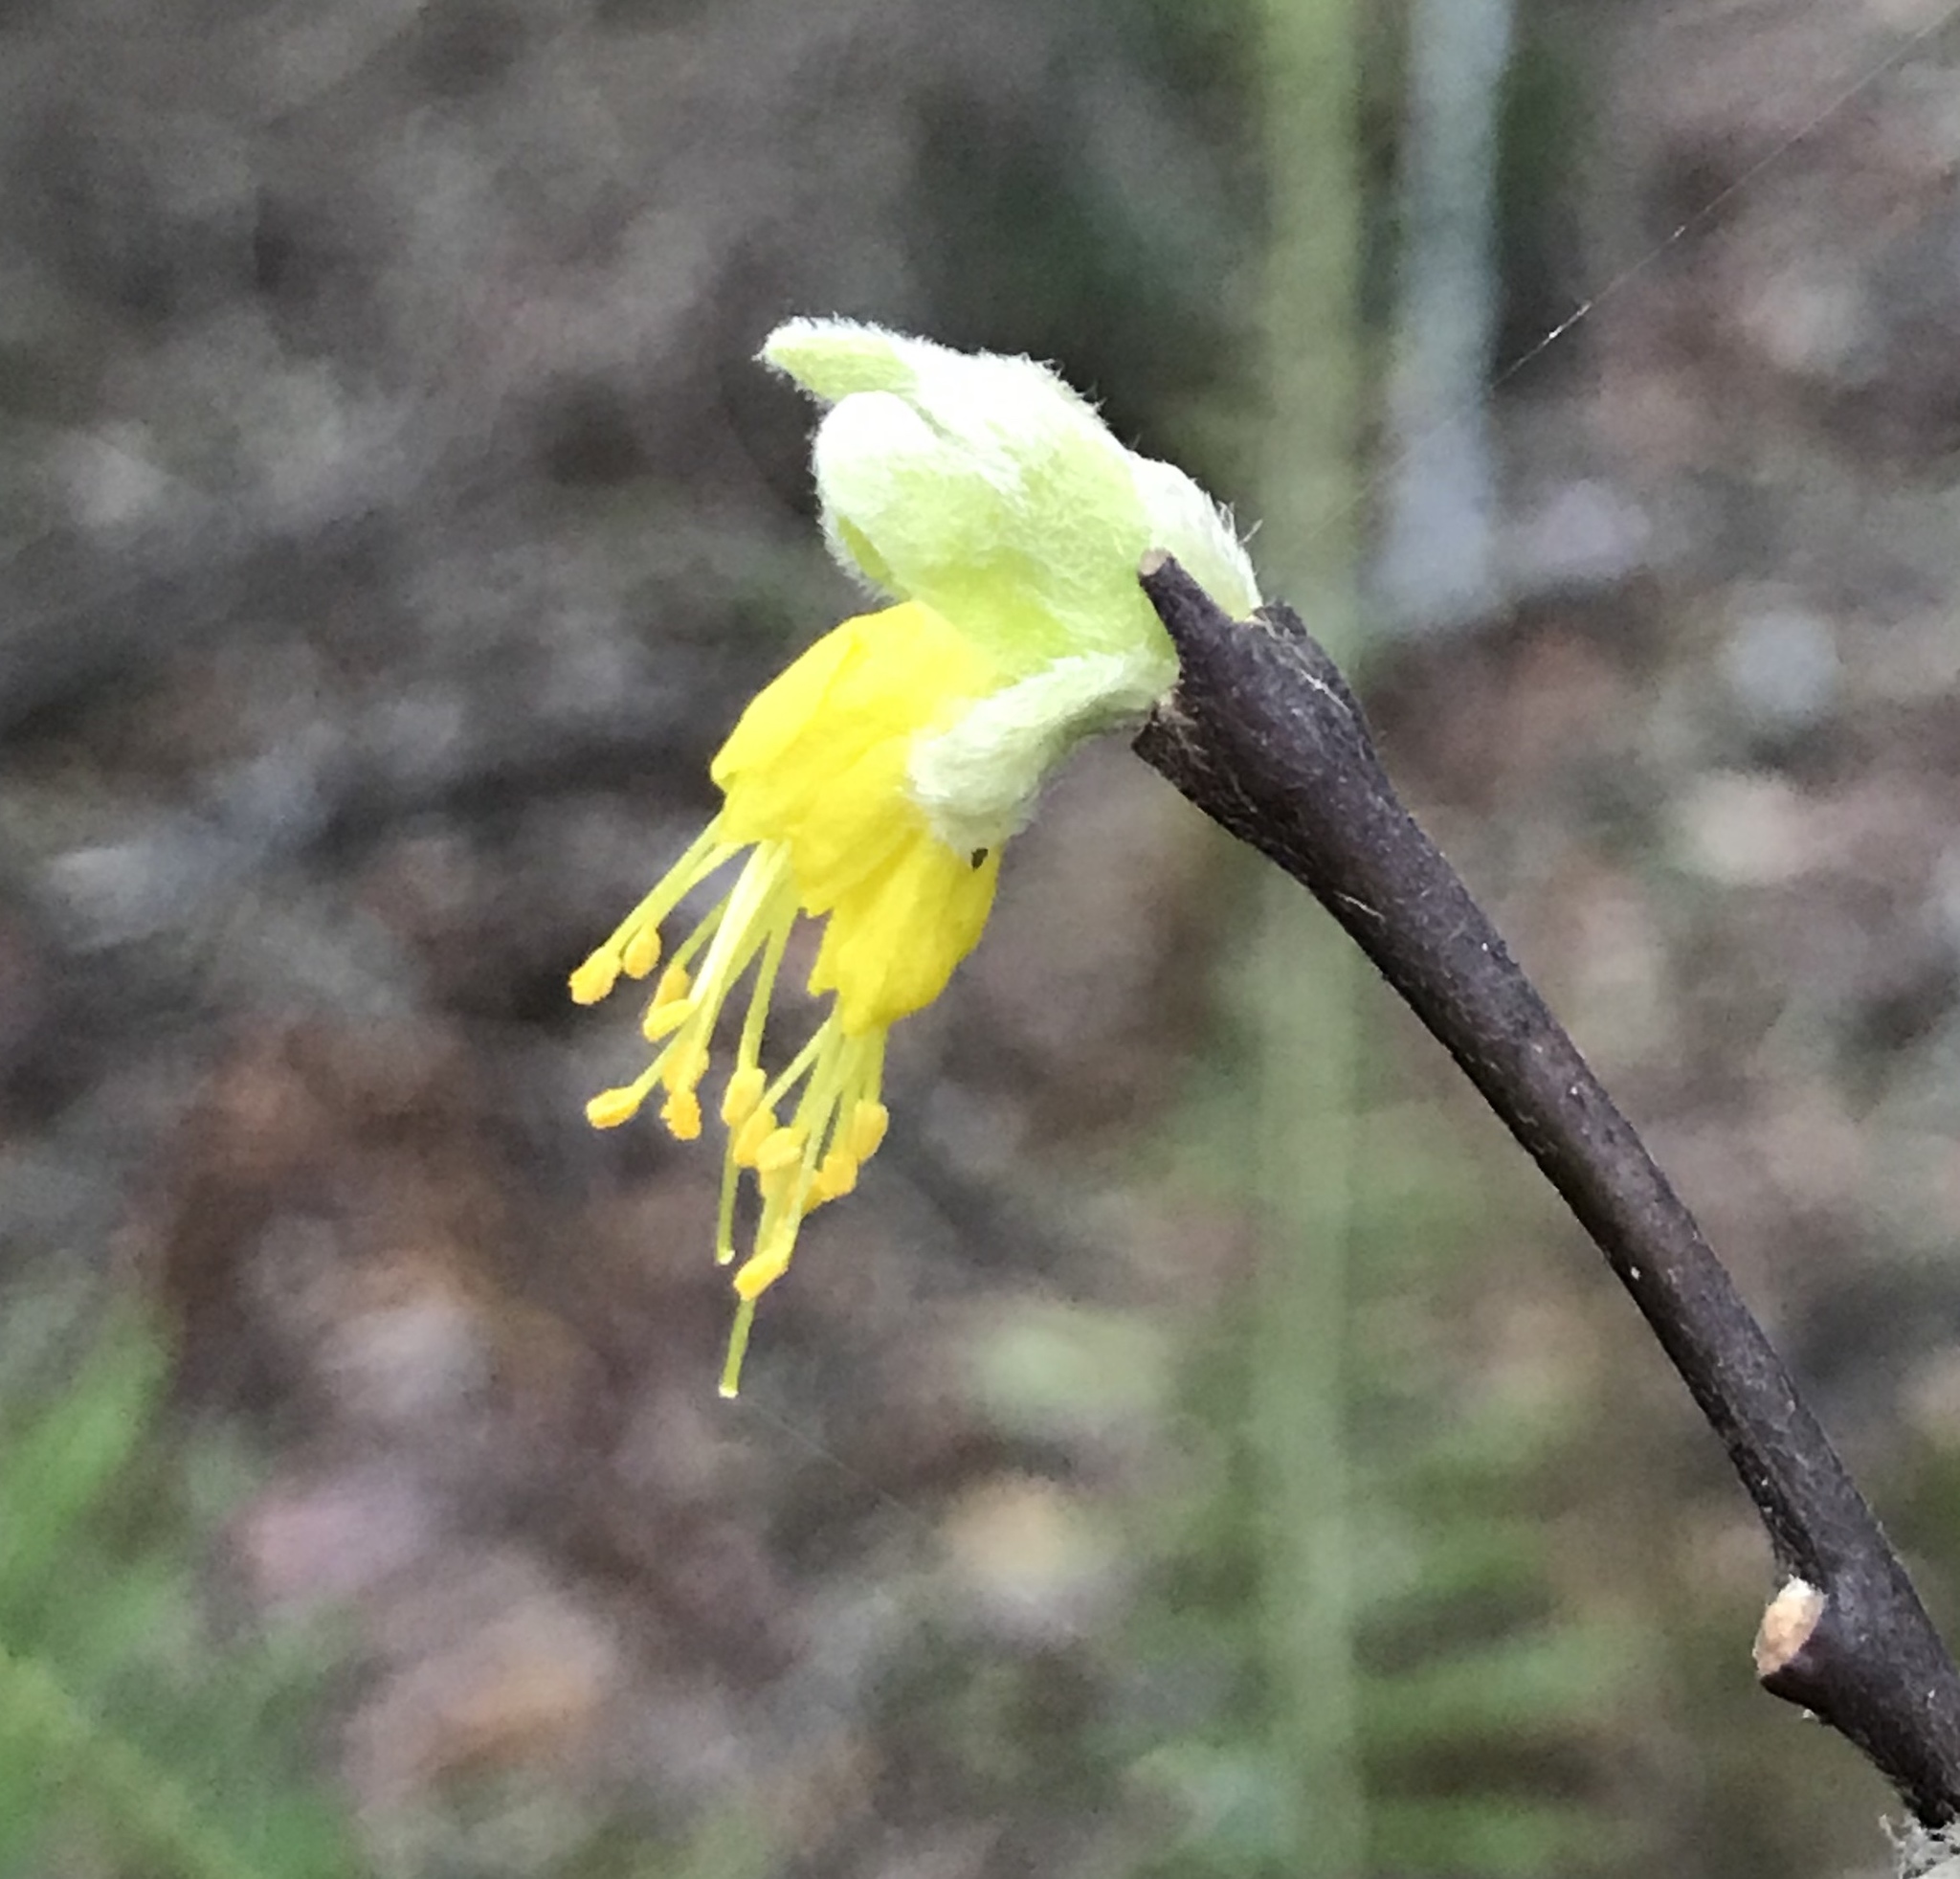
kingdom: Plantae
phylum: Tracheophyta
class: Magnoliopsida
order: Malvales
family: Thymelaeaceae
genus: Dirca
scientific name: Dirca occidentalis
